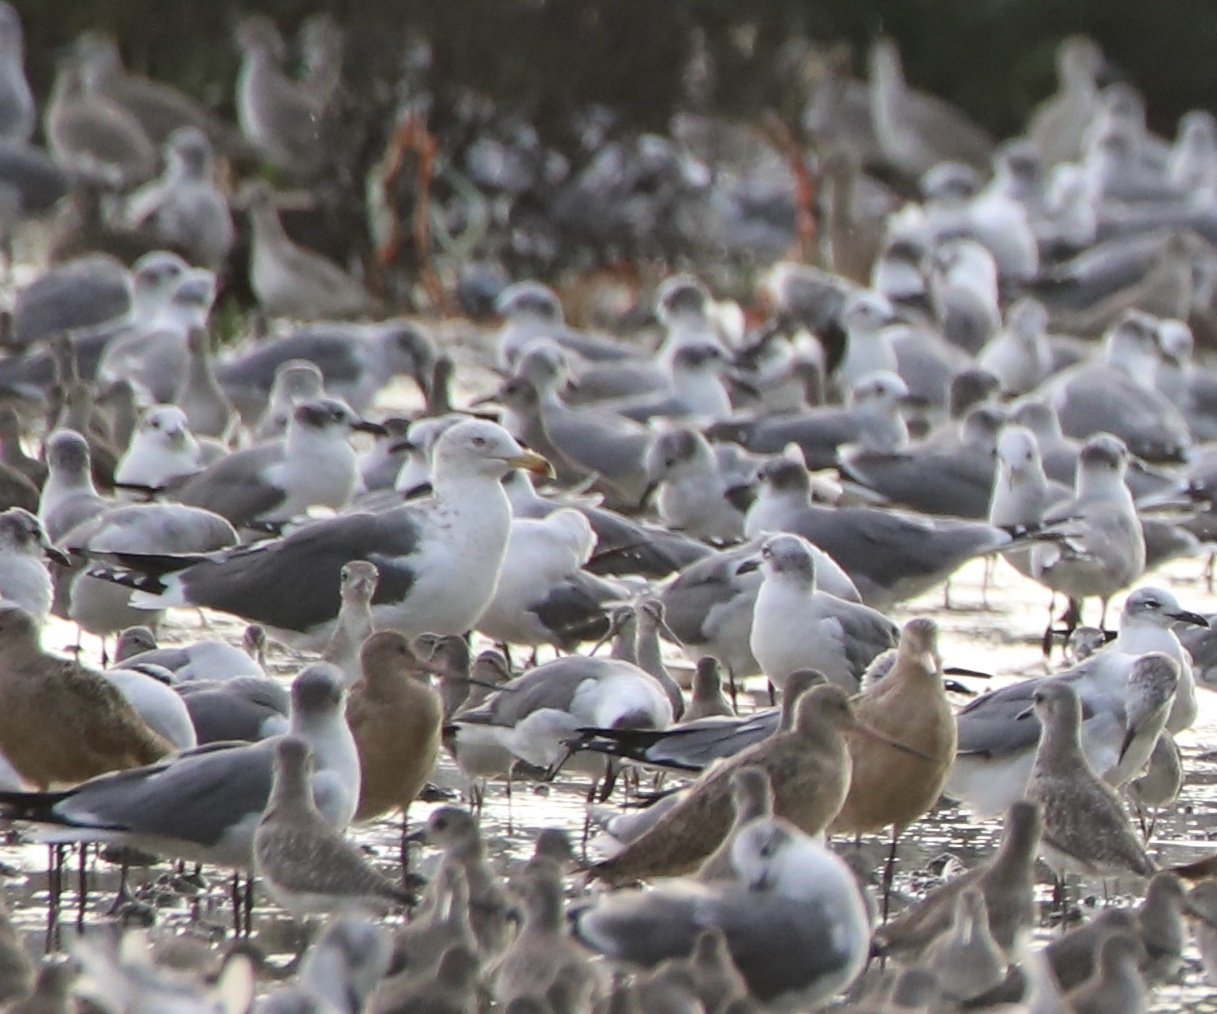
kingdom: Animalia
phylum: Chordata
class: Aves
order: Charadriiformes
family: Laridae
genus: Larus
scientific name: Larus fuscus
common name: Lesser black-backed gull
